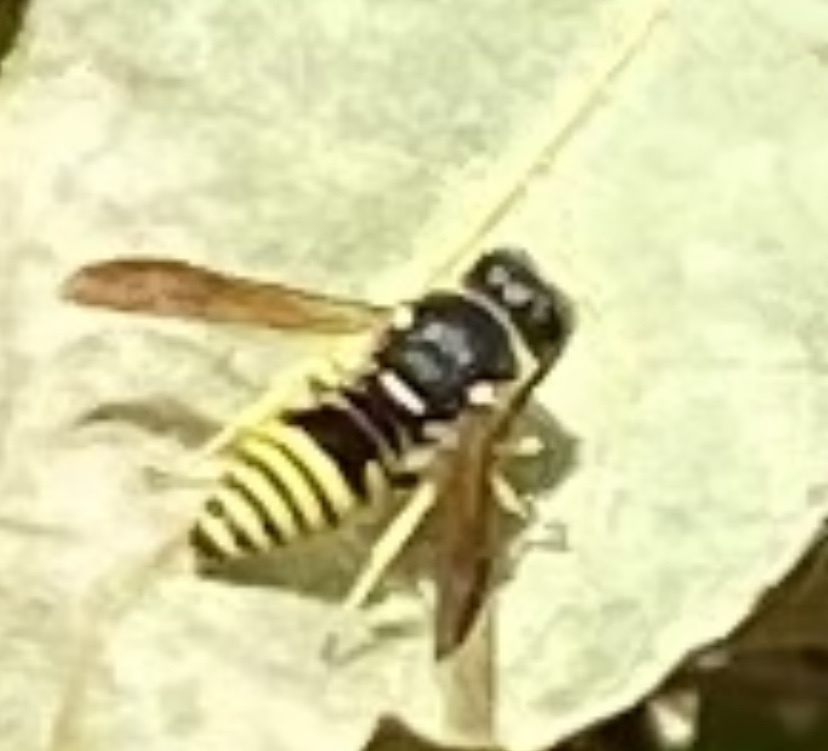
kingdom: Animalia
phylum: Arthropoda
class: Insecta
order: Hymenoptera
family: Eumenidae
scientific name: Eumenidae
